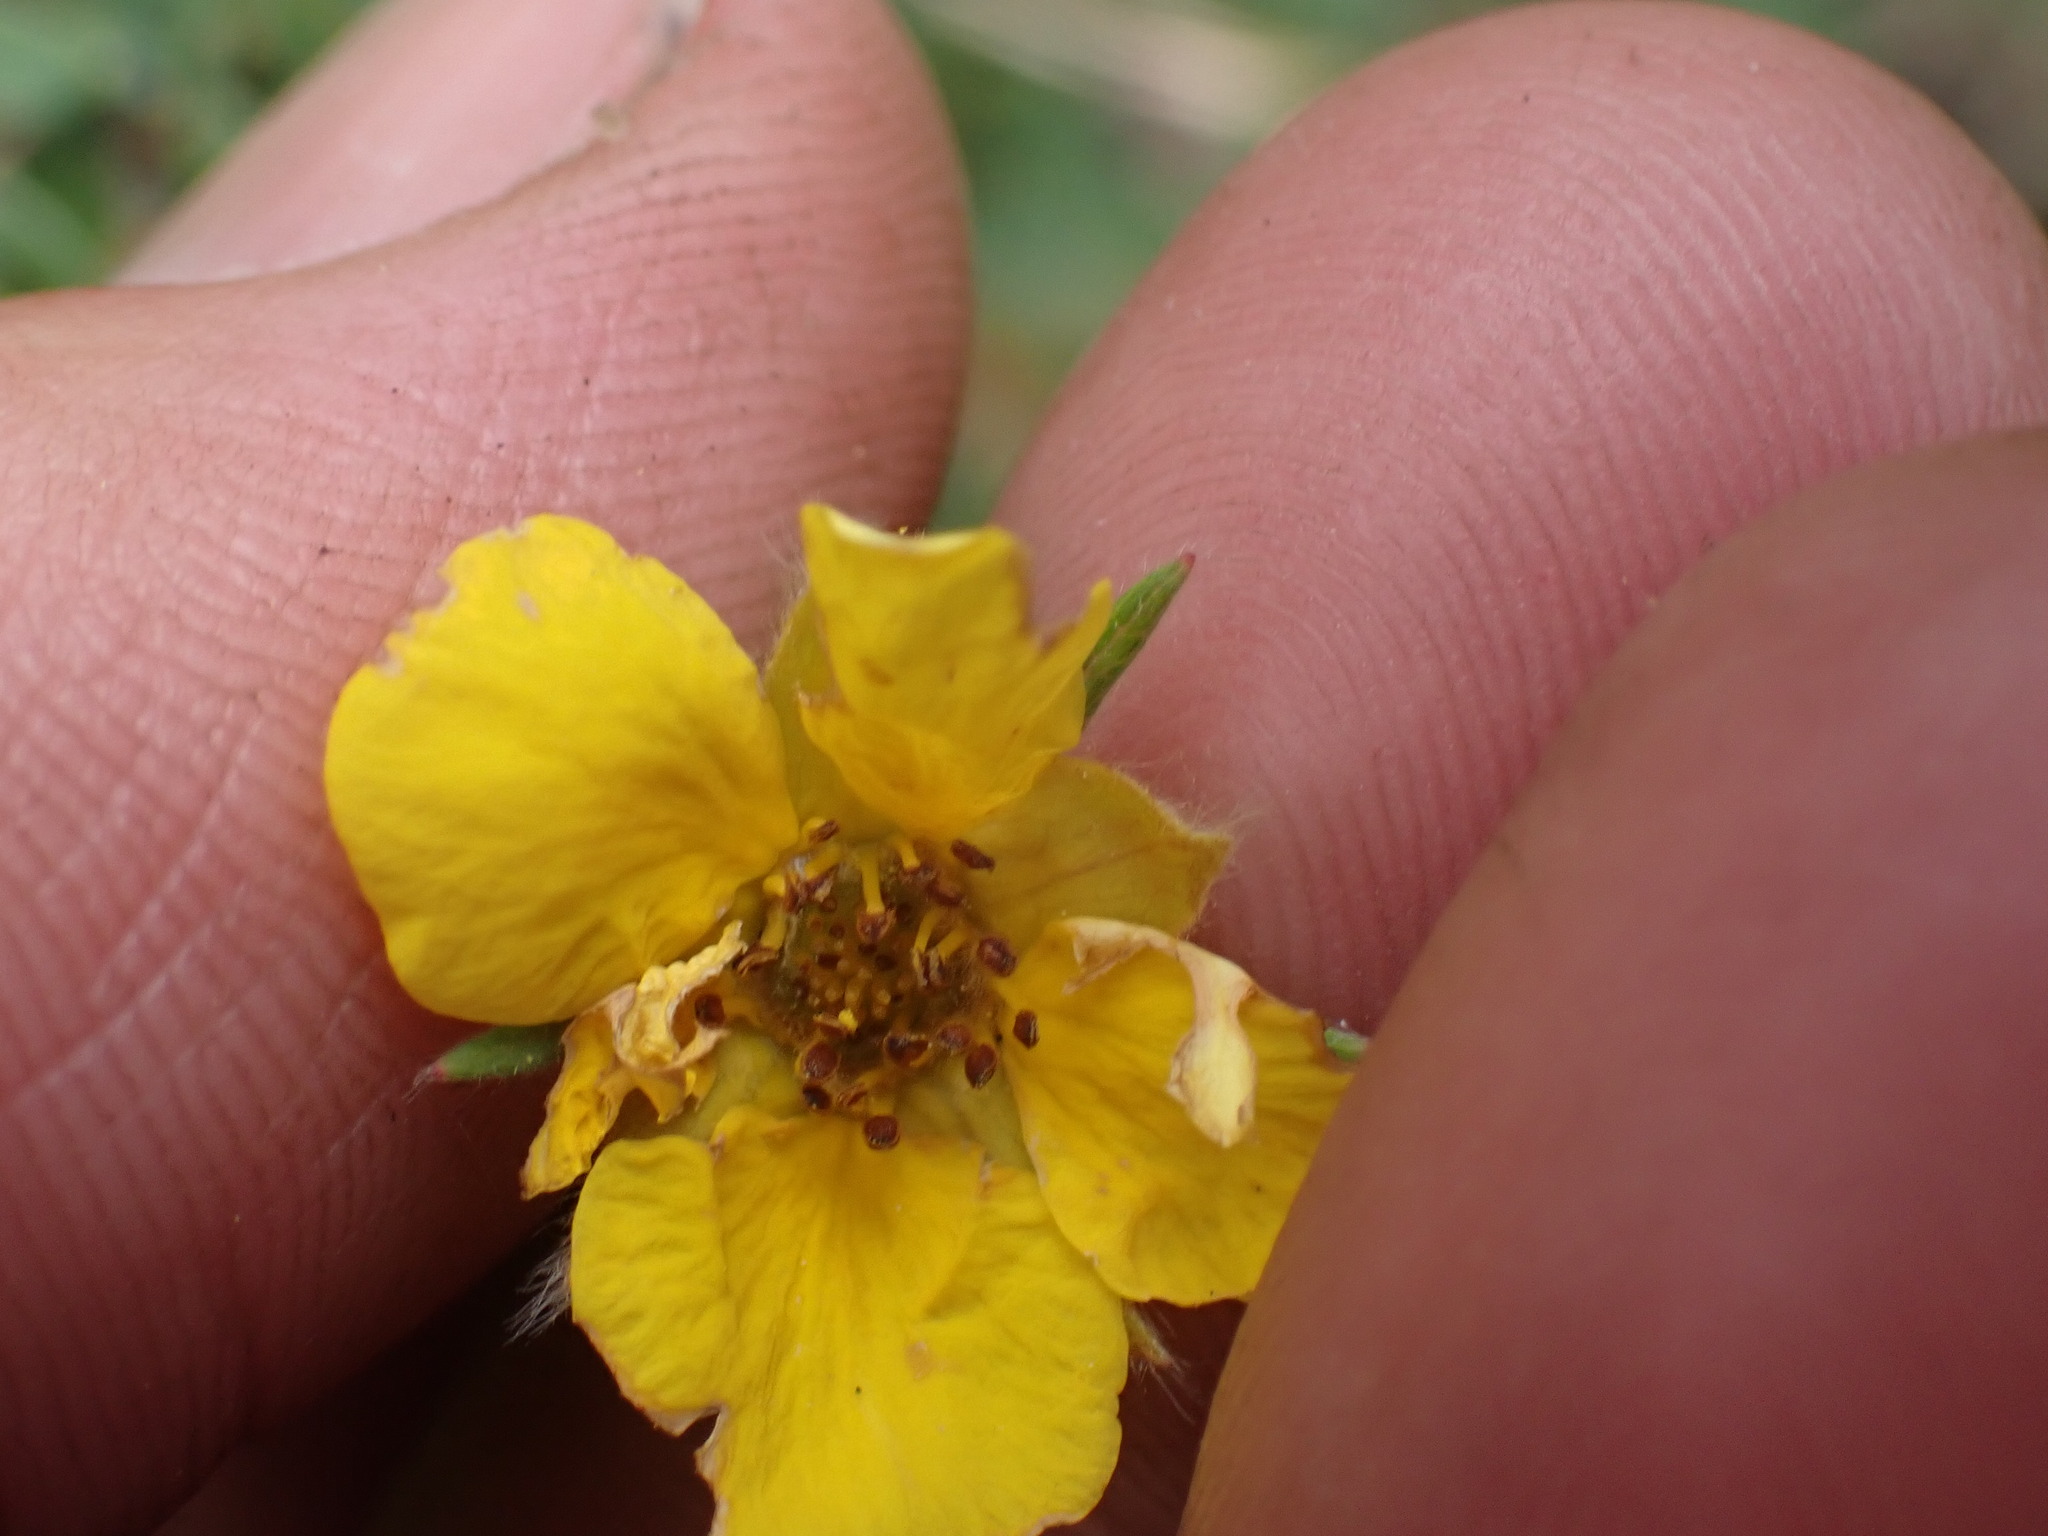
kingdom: Plantae
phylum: Tracheophyta
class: Magnoliopsida
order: Rosales
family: Rosaceae
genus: Dasiphora
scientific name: Dasiphora fruticosa
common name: Shrubby cinquefoil
